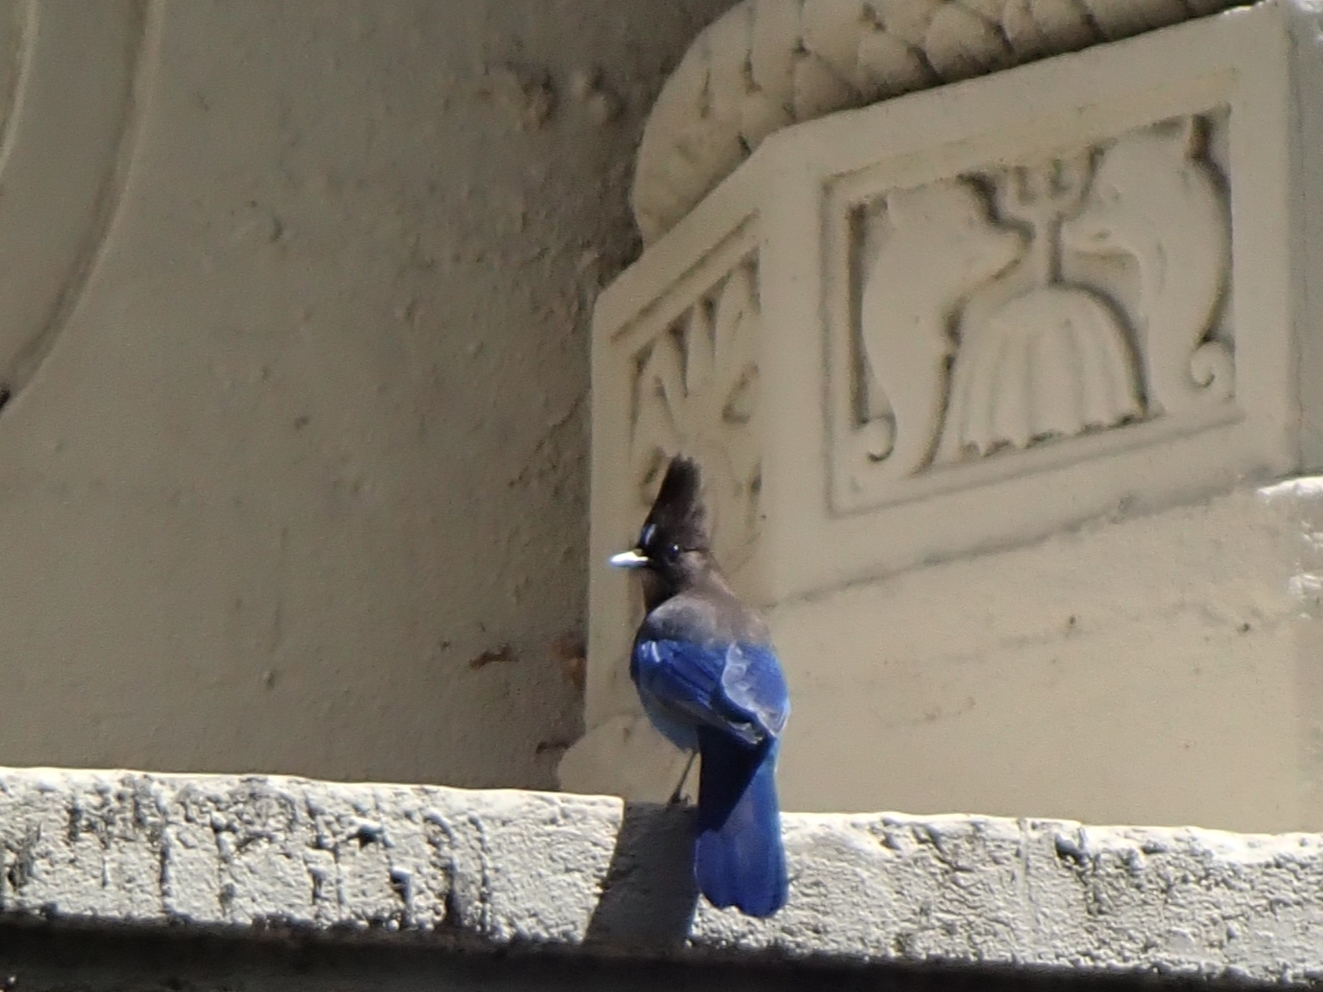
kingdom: Animalia
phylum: Chordata
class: Aves
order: Passeriformes
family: Corvidae
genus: Cyanocitta
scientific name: Cyanocitta stelleri
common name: Steller's jay
